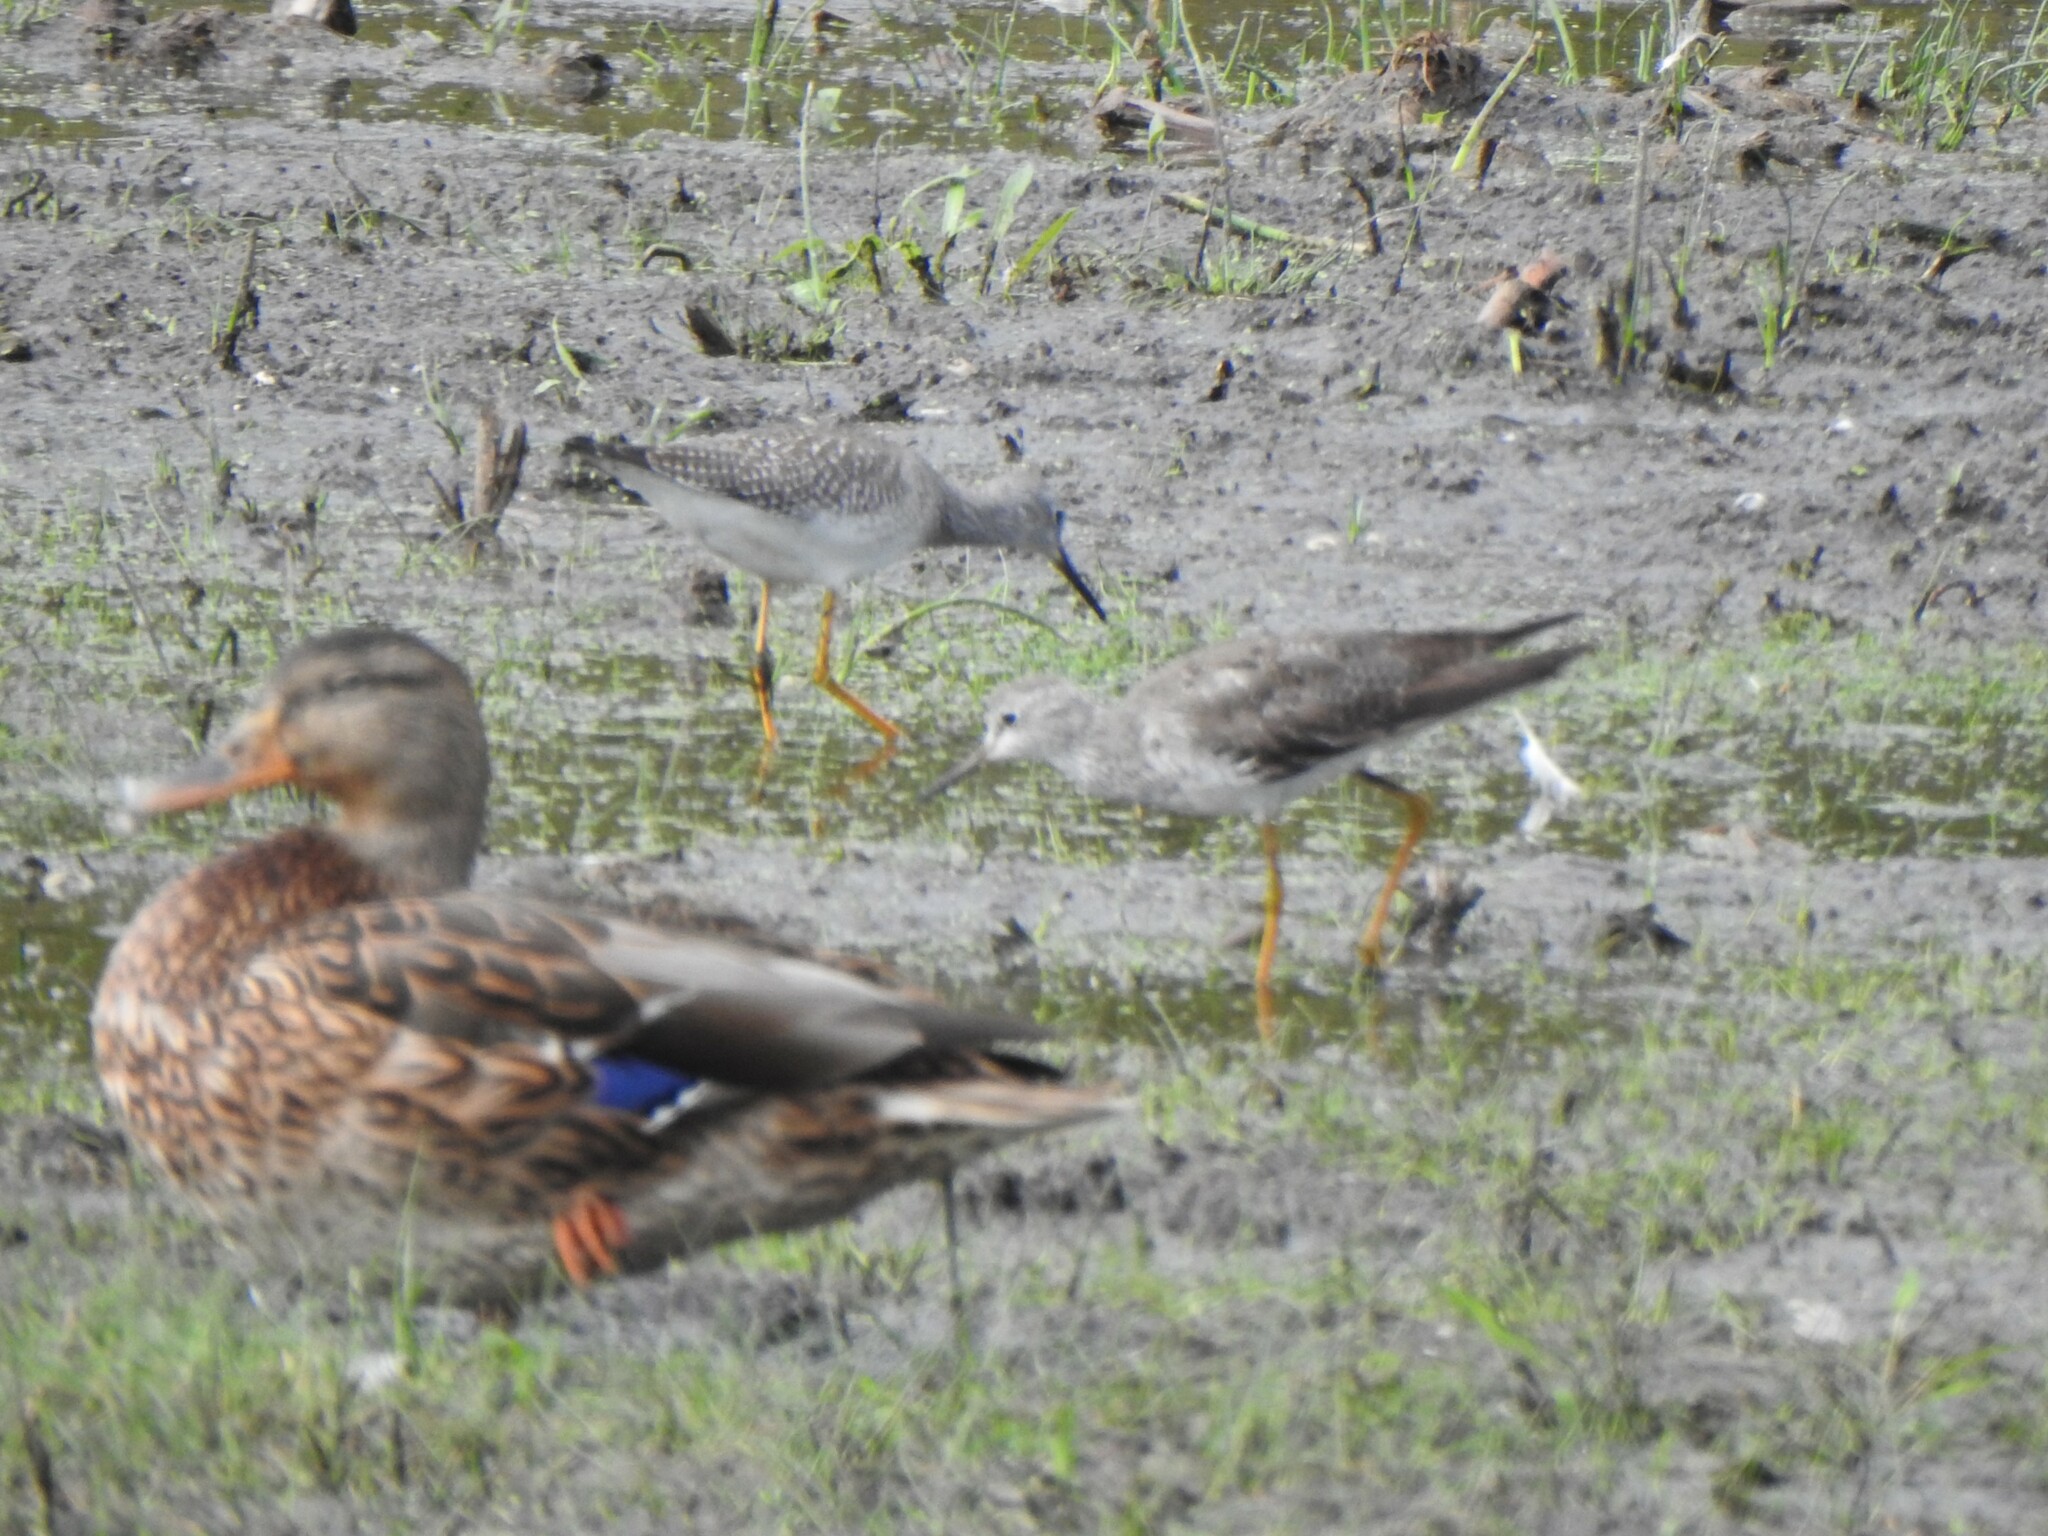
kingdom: Animalia
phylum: Chordata
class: Aves
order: Charadriiformes
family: Scolopacidae
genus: Tringa
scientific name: Tringa melanoleuca
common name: Greater yellowlegs
